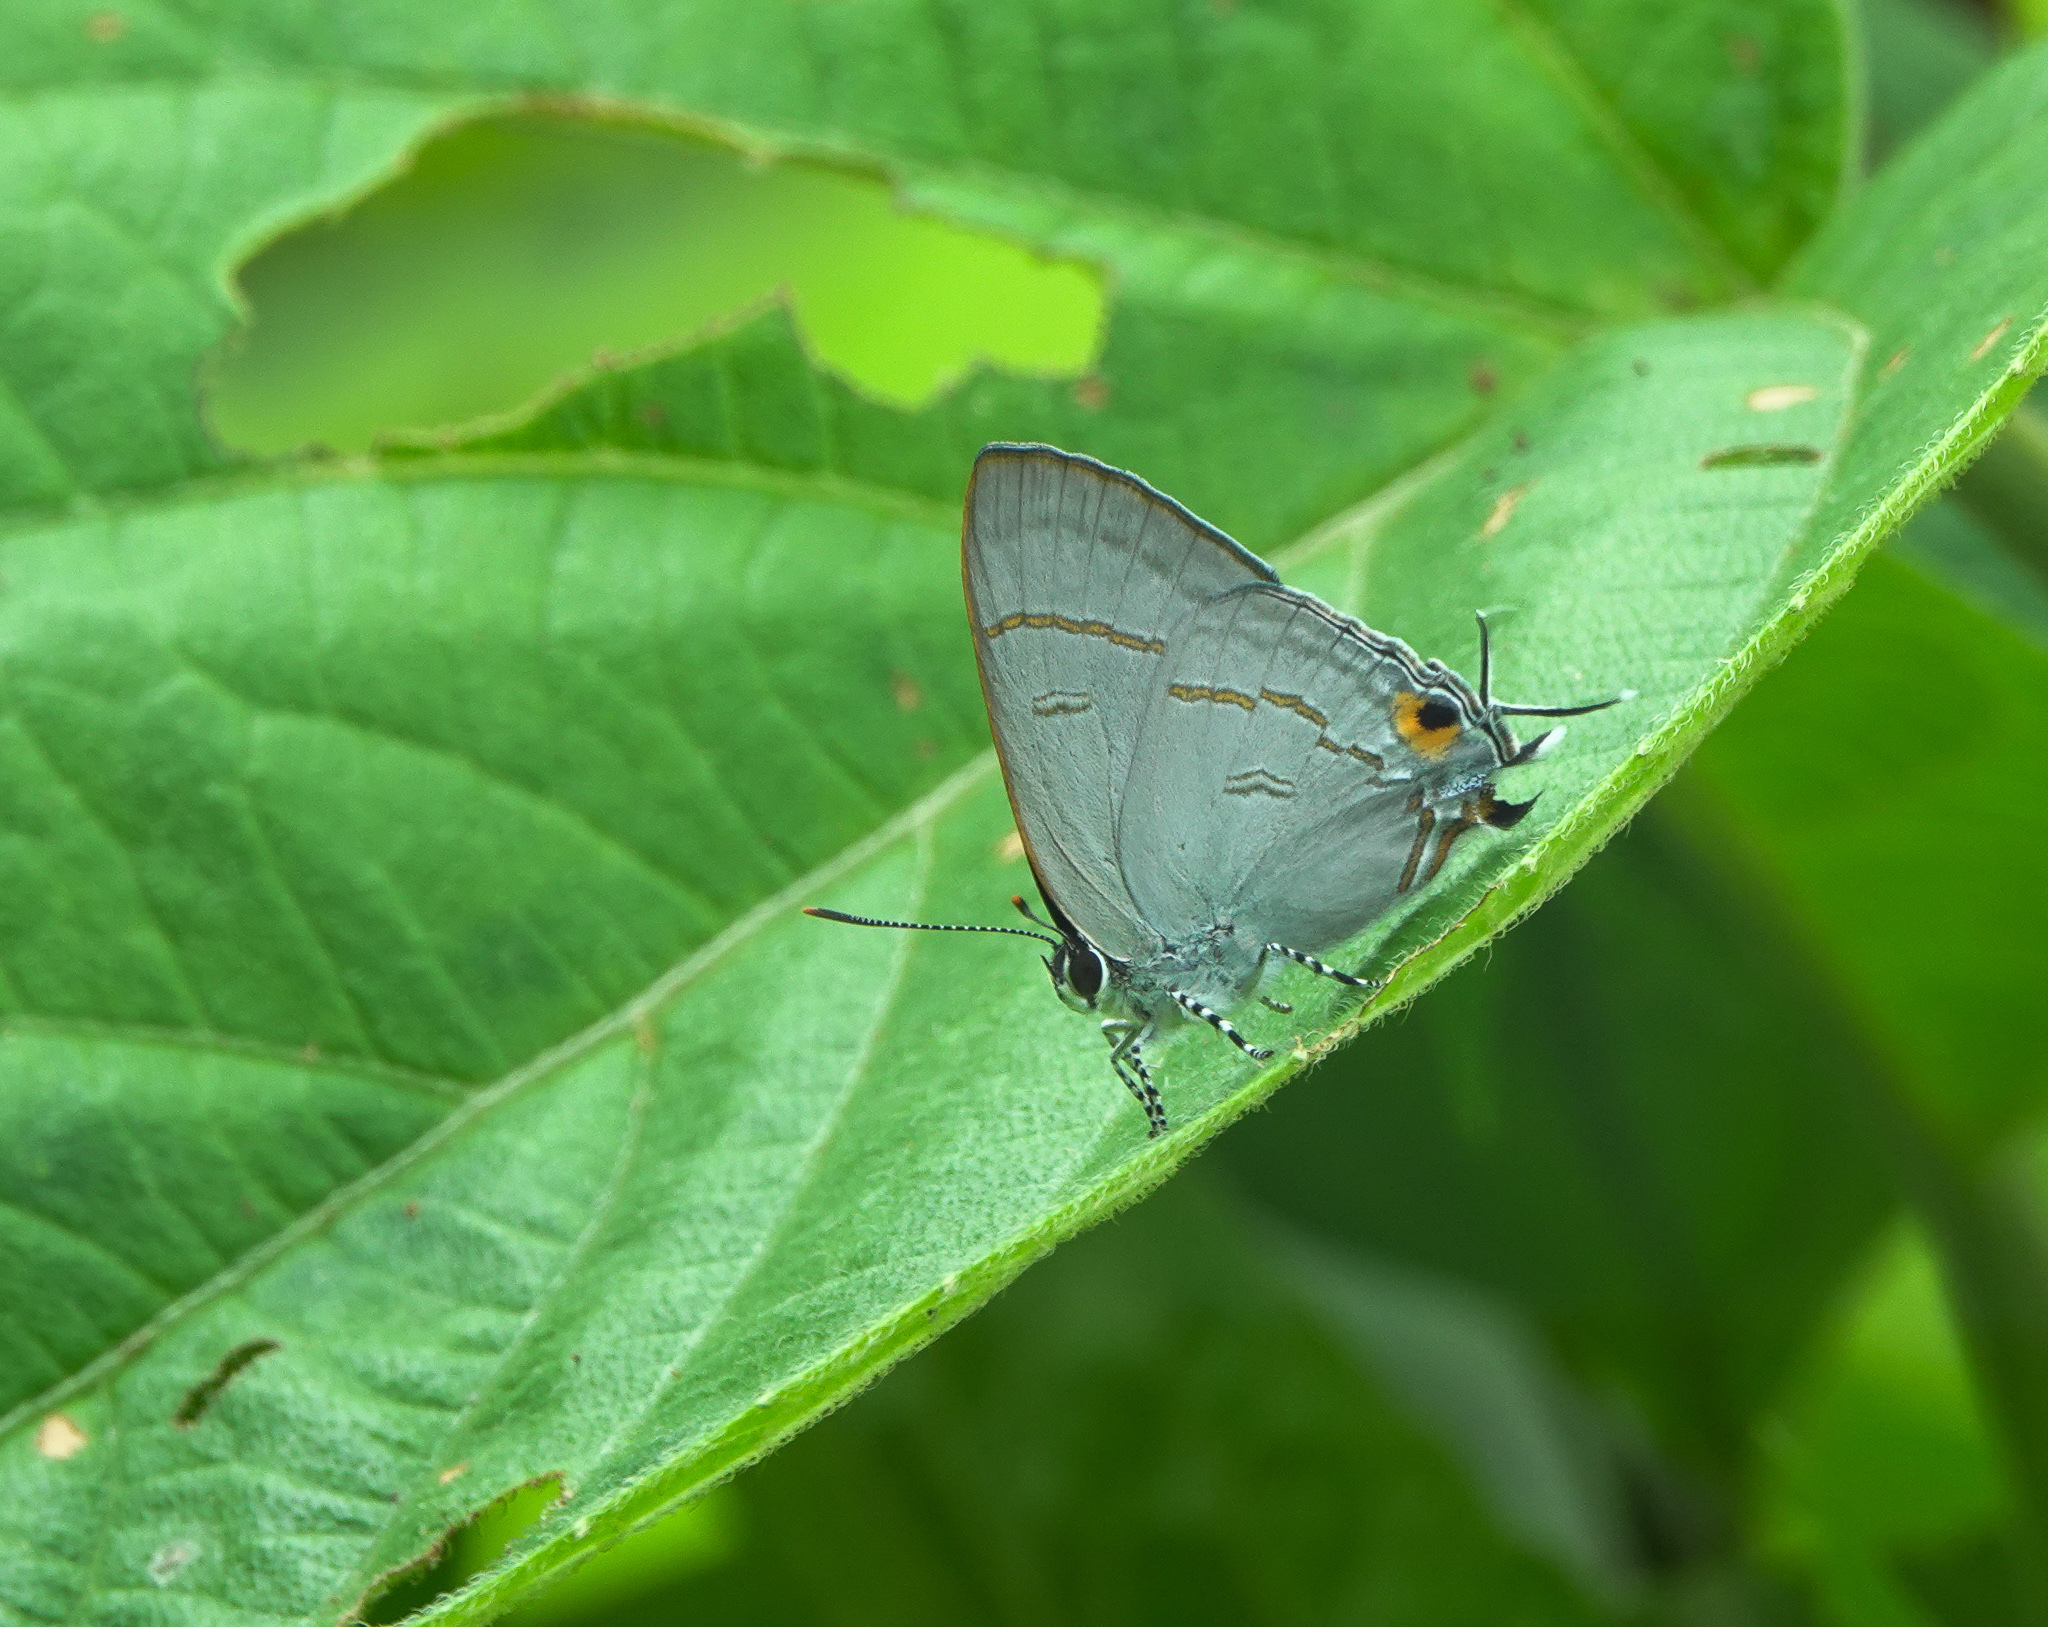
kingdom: Animalia
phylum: Arthropoda
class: Insecta
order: Lepidoptera
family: Lycaenidae
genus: Hypolycaena
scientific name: Hypolycaena erylus
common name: Common tit
